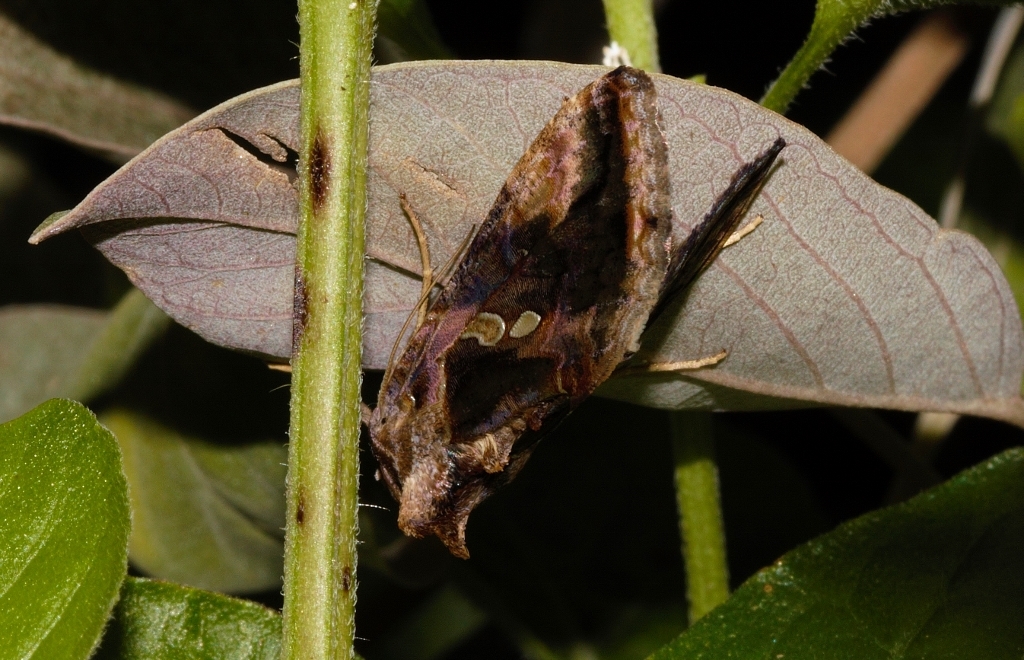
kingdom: Animalia
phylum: Arthropoda
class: Insecta
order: Lepidoptera
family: Noctuidae
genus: Chrysodeixis
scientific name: Chrysodeixis acuta
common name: Tunbridge wells gem
